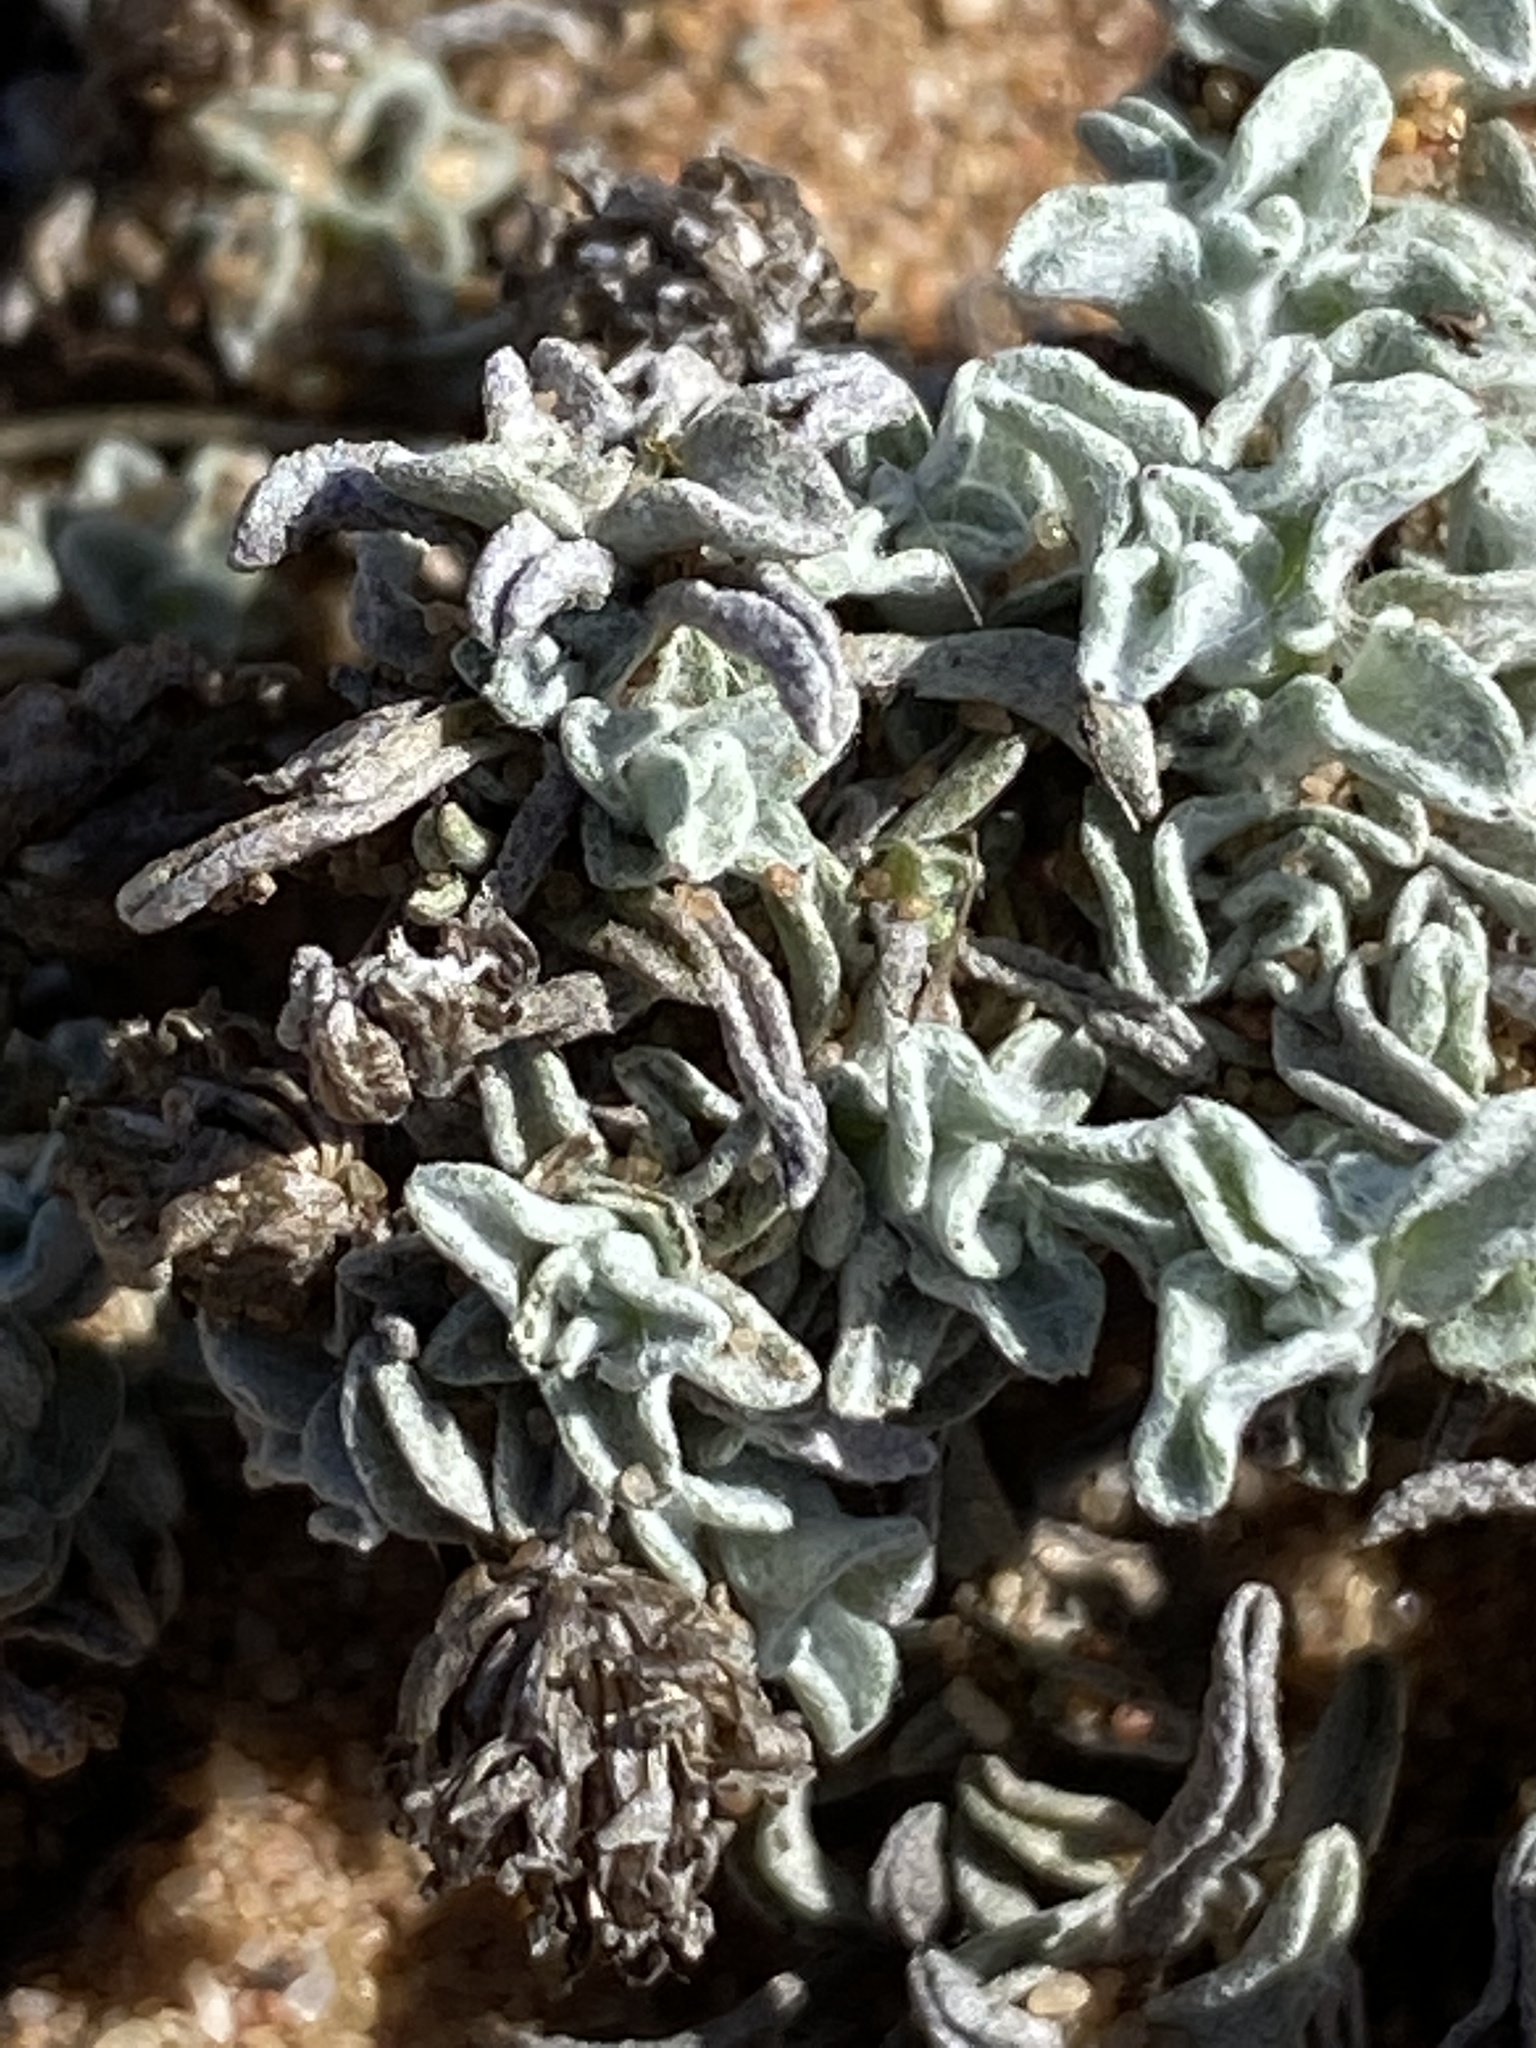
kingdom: Plantae
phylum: Tracheophyta
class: Magnoliopsida
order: Asterales
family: Asteraceae
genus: Helichrysum
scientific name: Helichrysum cochleariforme
